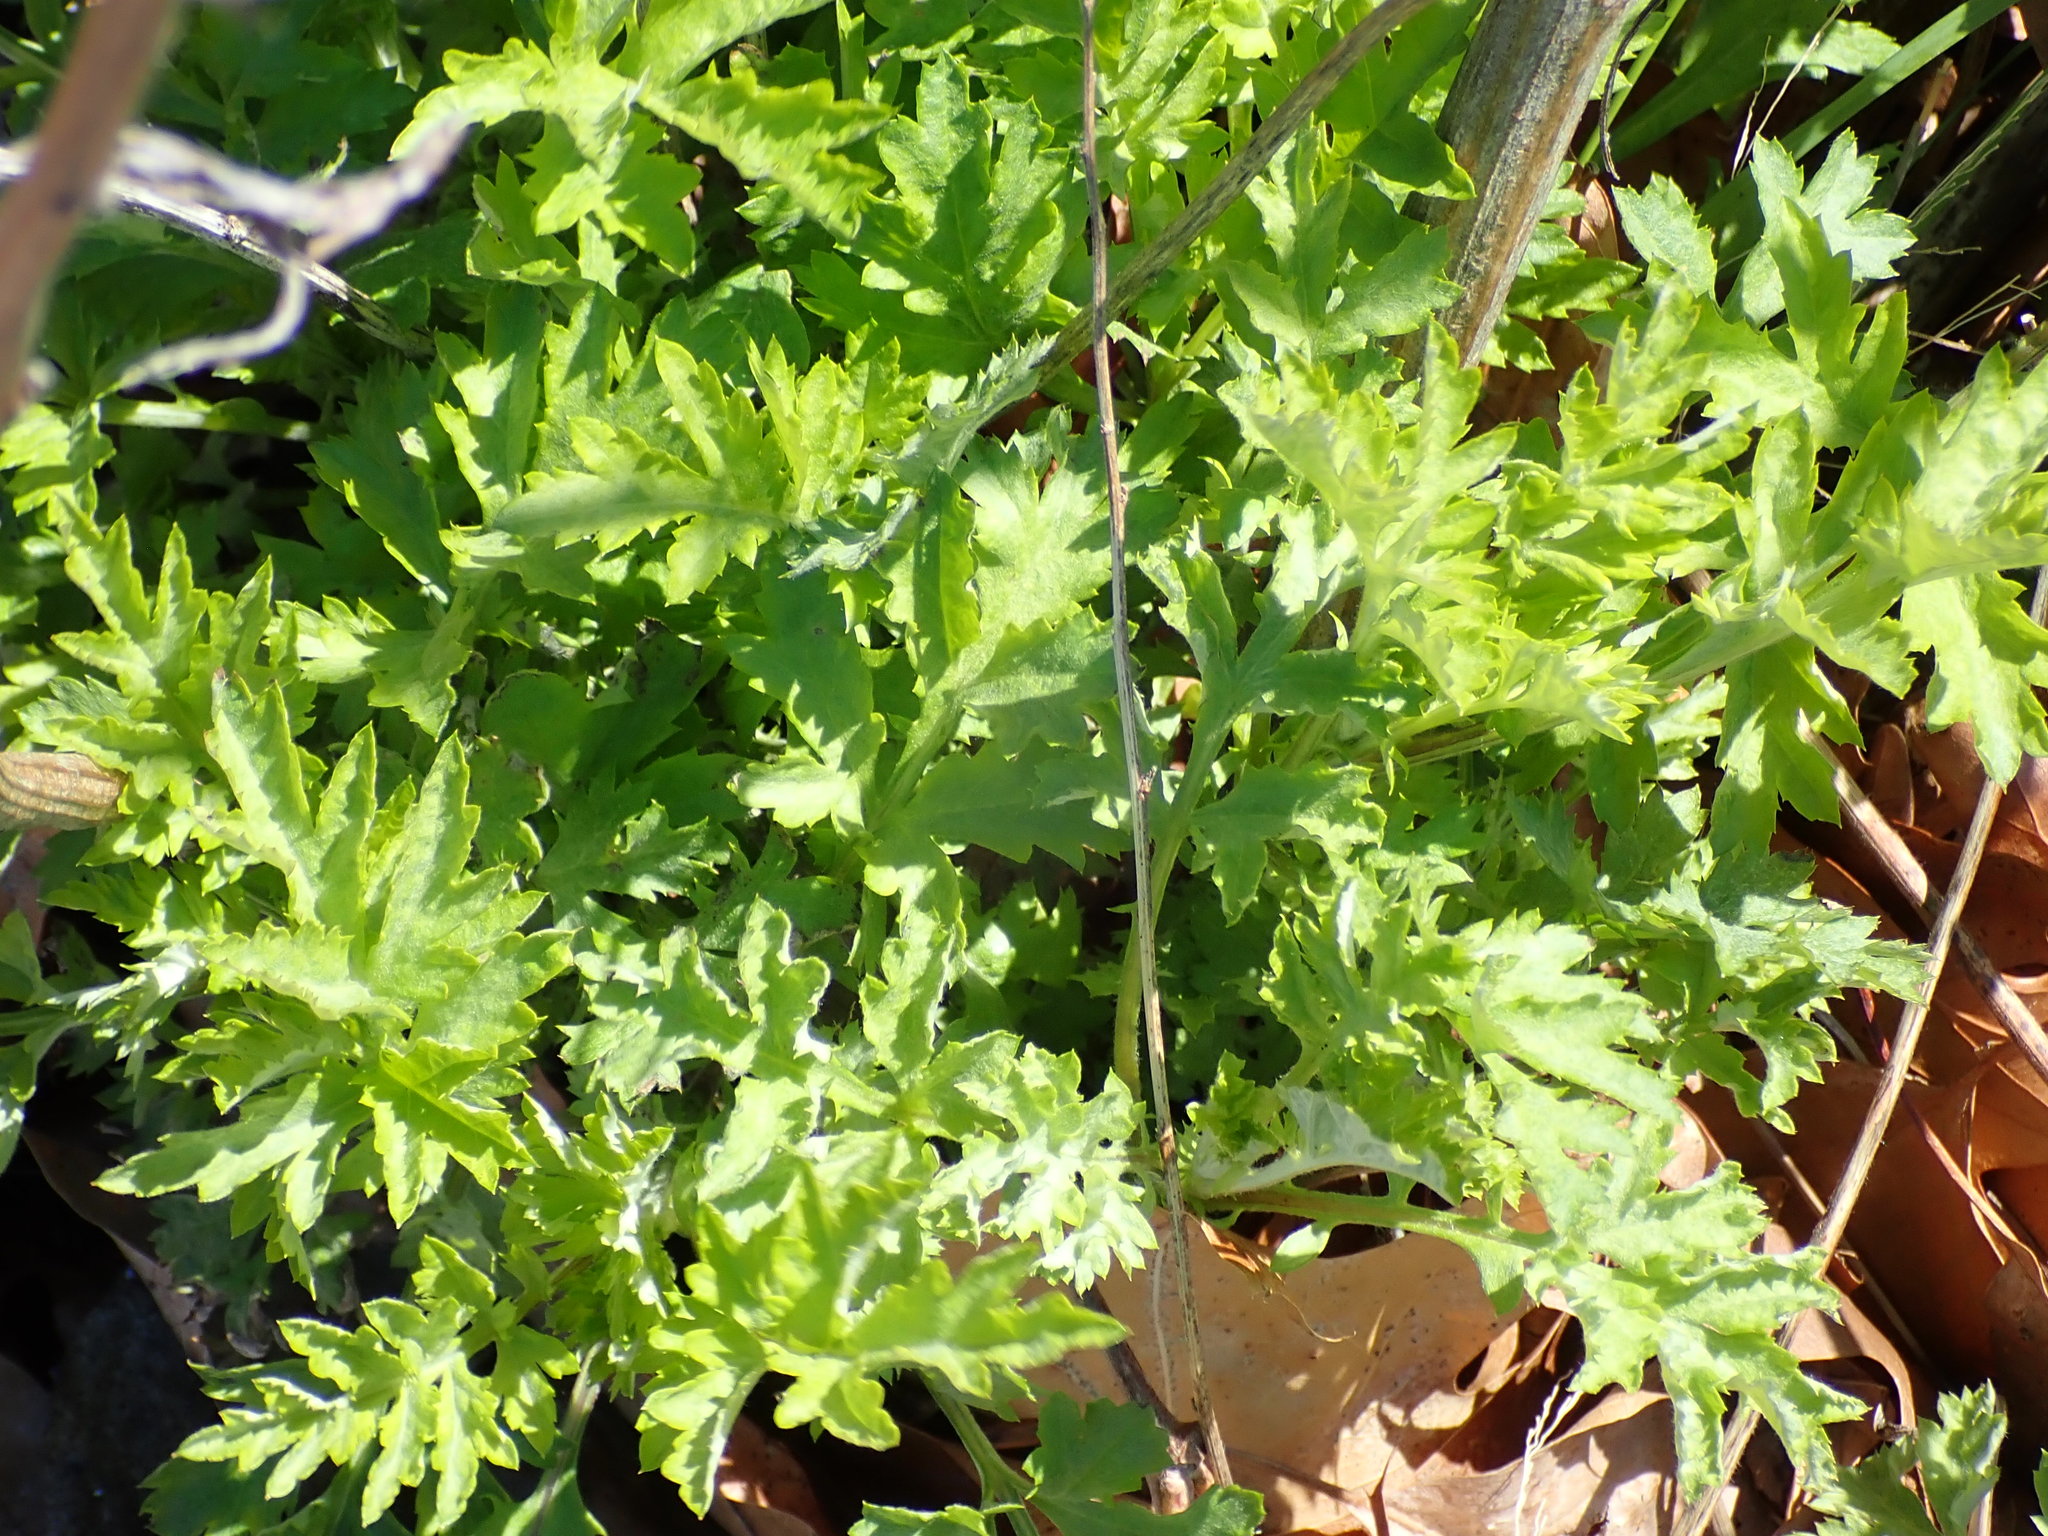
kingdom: Plantae
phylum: Tracheophyta
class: Magnoliopsida
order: Asterales
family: Asteraceae
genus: Artemisia
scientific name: Artemisia vulgaris
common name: Mugwort
